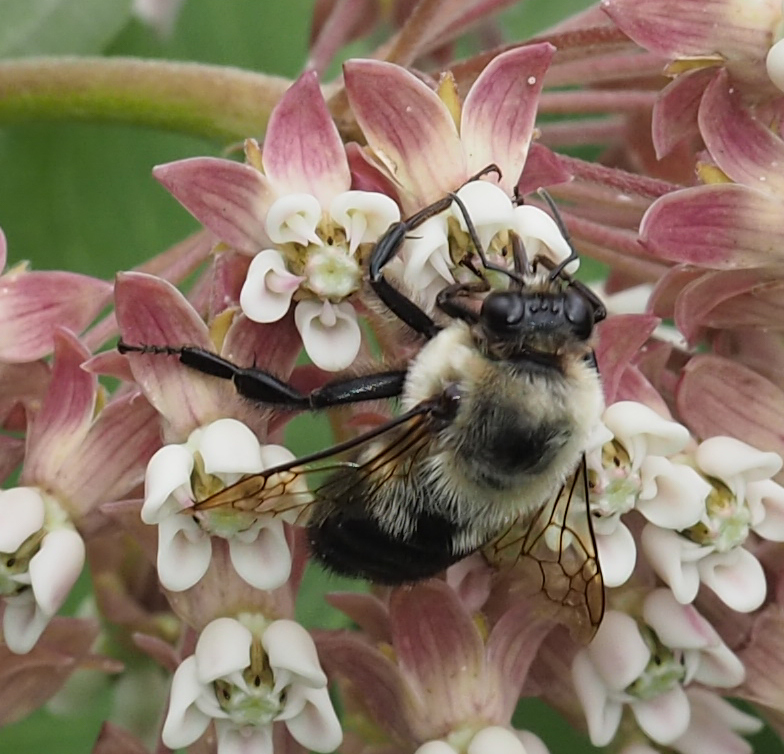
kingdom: Animalia
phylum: Arthropoda
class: Insecta
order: Hymenoptera
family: Apidae
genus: Bombus
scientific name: Bombus griseocollis
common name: Brown-belted bumble bee
